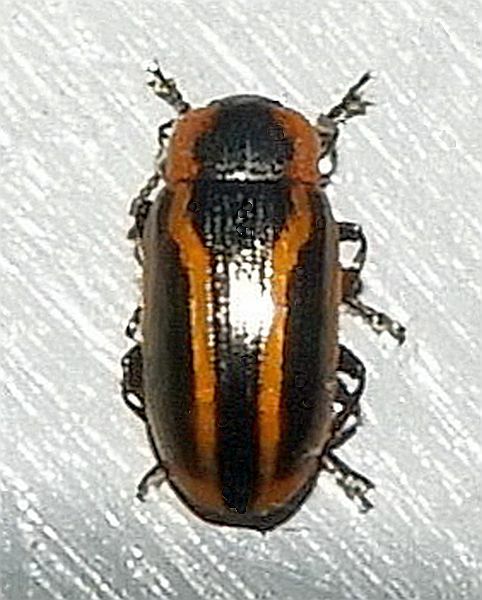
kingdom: Animalia
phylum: Arthropoda
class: Insecta
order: Coleoptera
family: Chrysomelidae
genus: Prasocuris
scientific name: Prasocuris vittata
